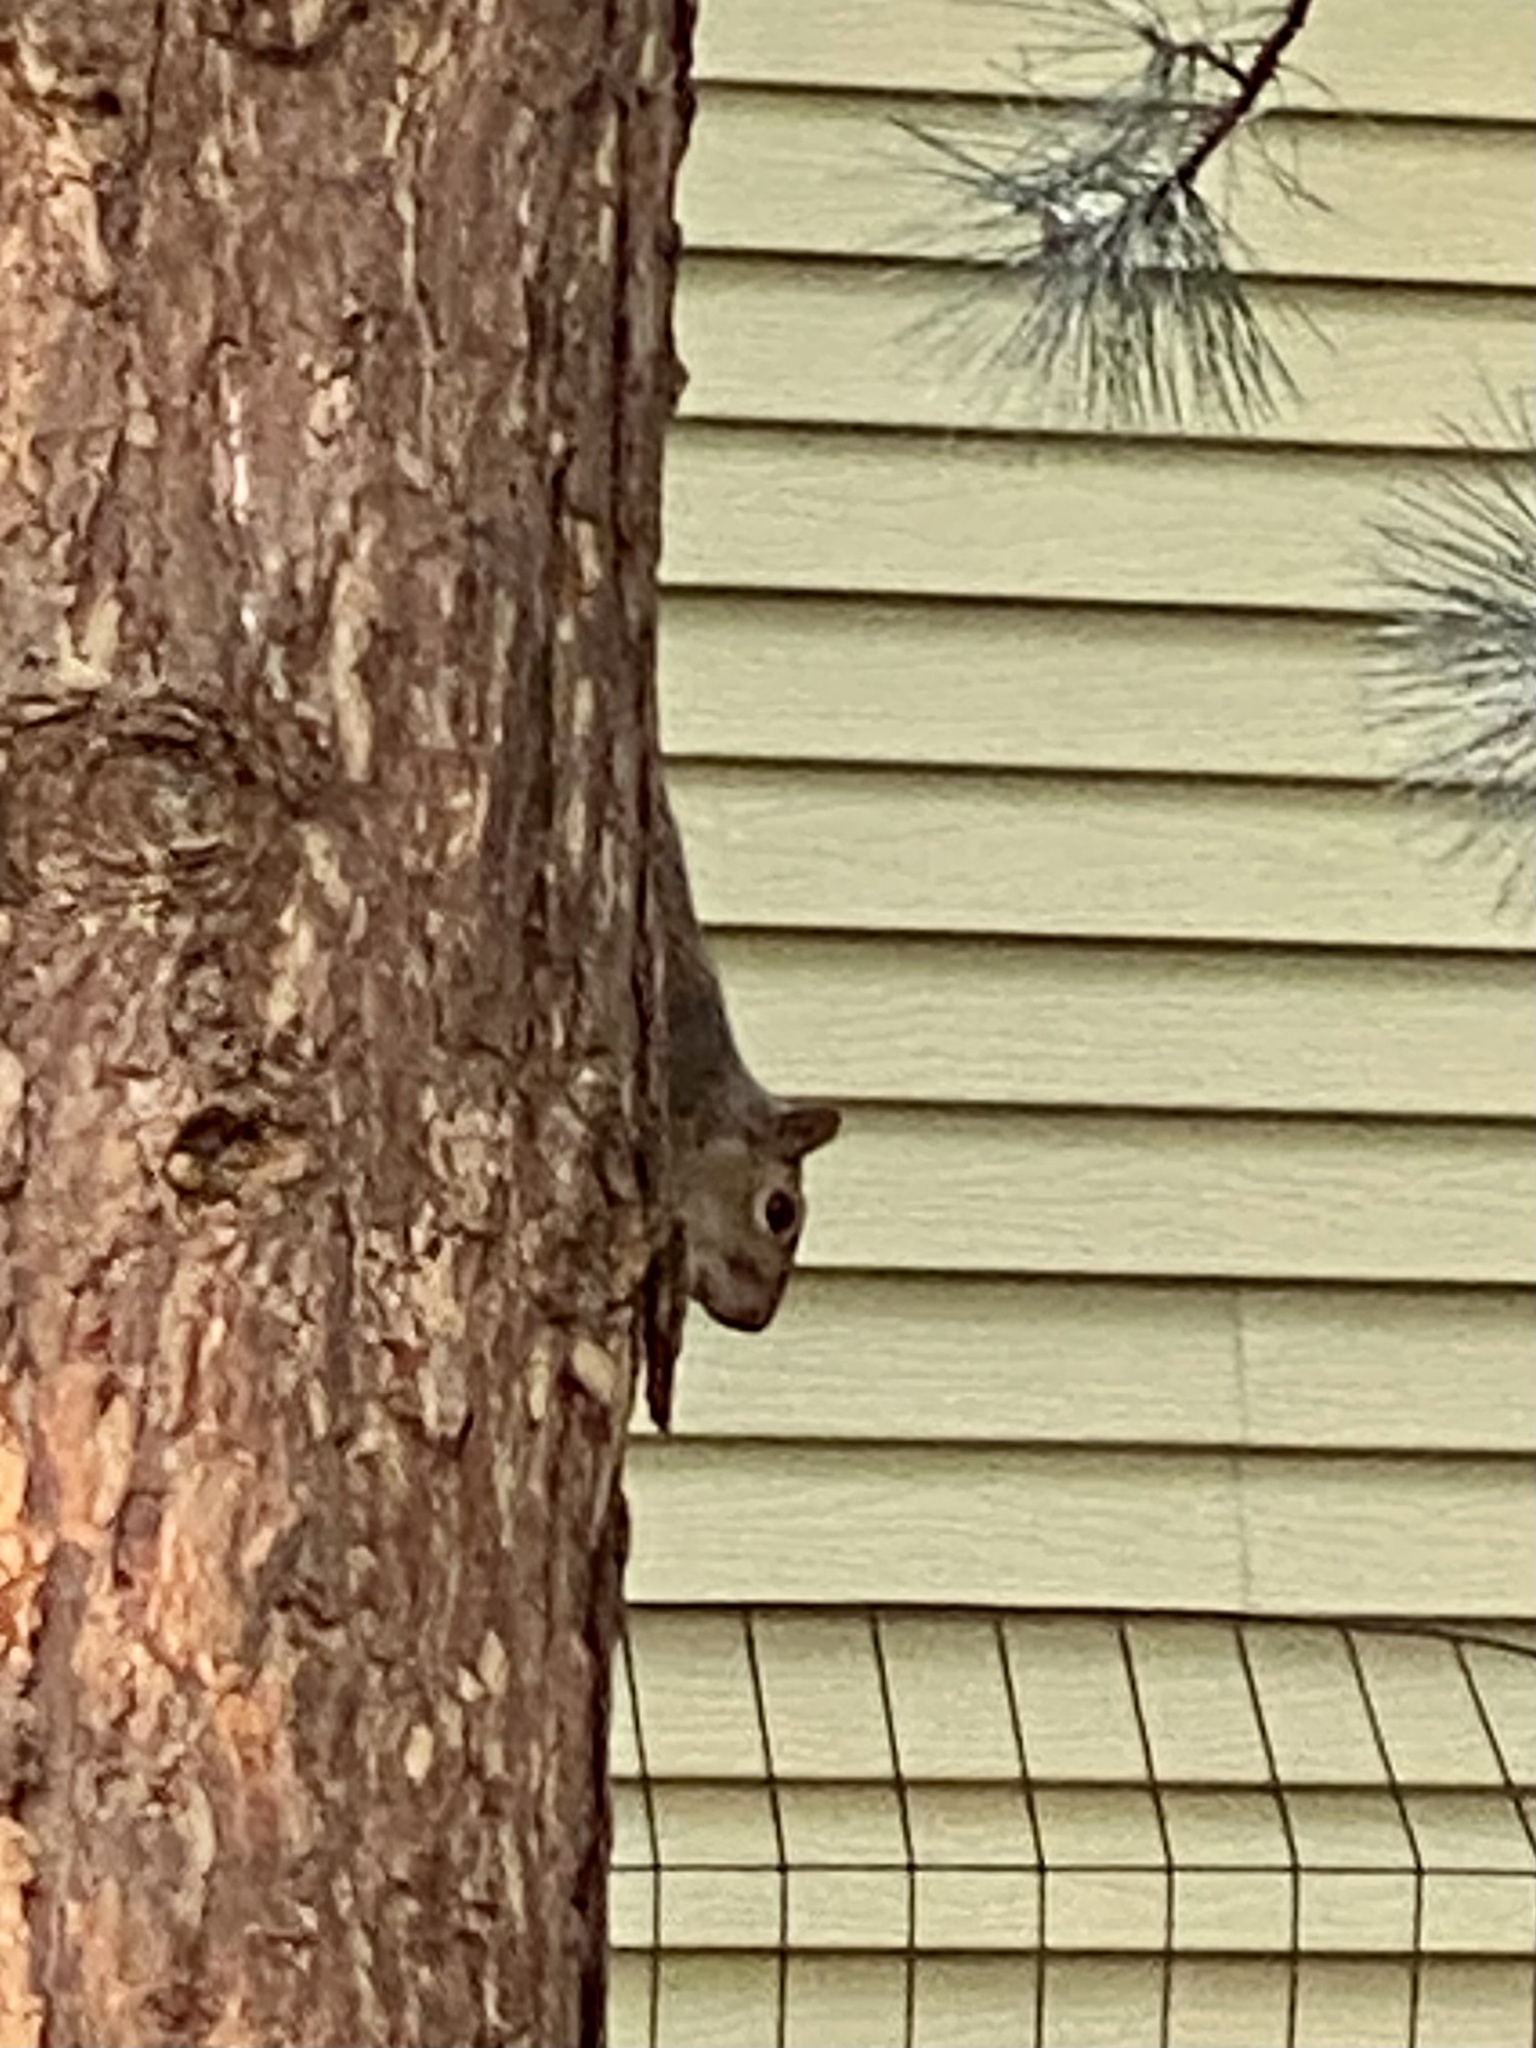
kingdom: Animalia
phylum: Chordata
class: Mammalia
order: Rodentia
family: Sciuridae
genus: Sciurus
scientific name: Sciurus carolinensis
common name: Eastern gray squirrel
